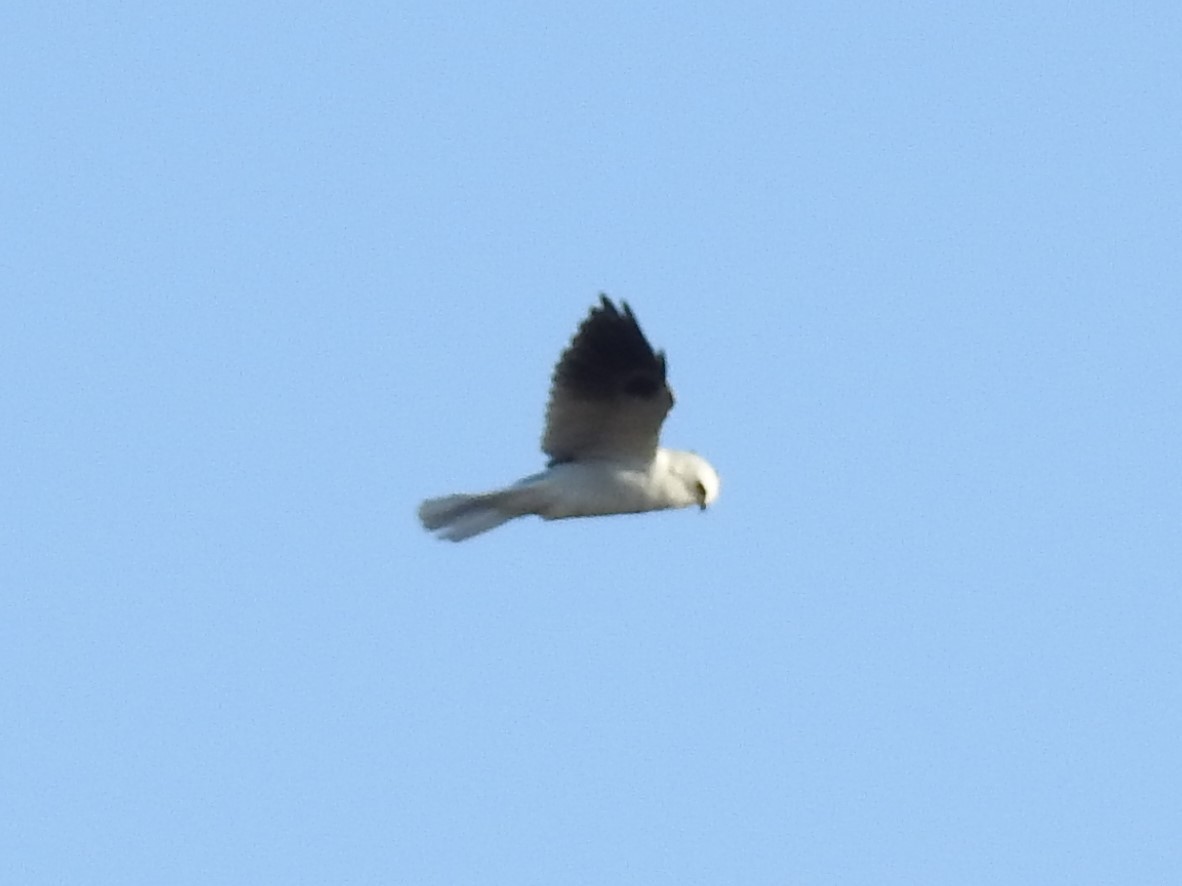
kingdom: Animalia
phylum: Chordata
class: Aves
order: Accipitriformes
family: Accipitridae
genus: Elanus
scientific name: Elanus leucurus
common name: White-tailed kite
